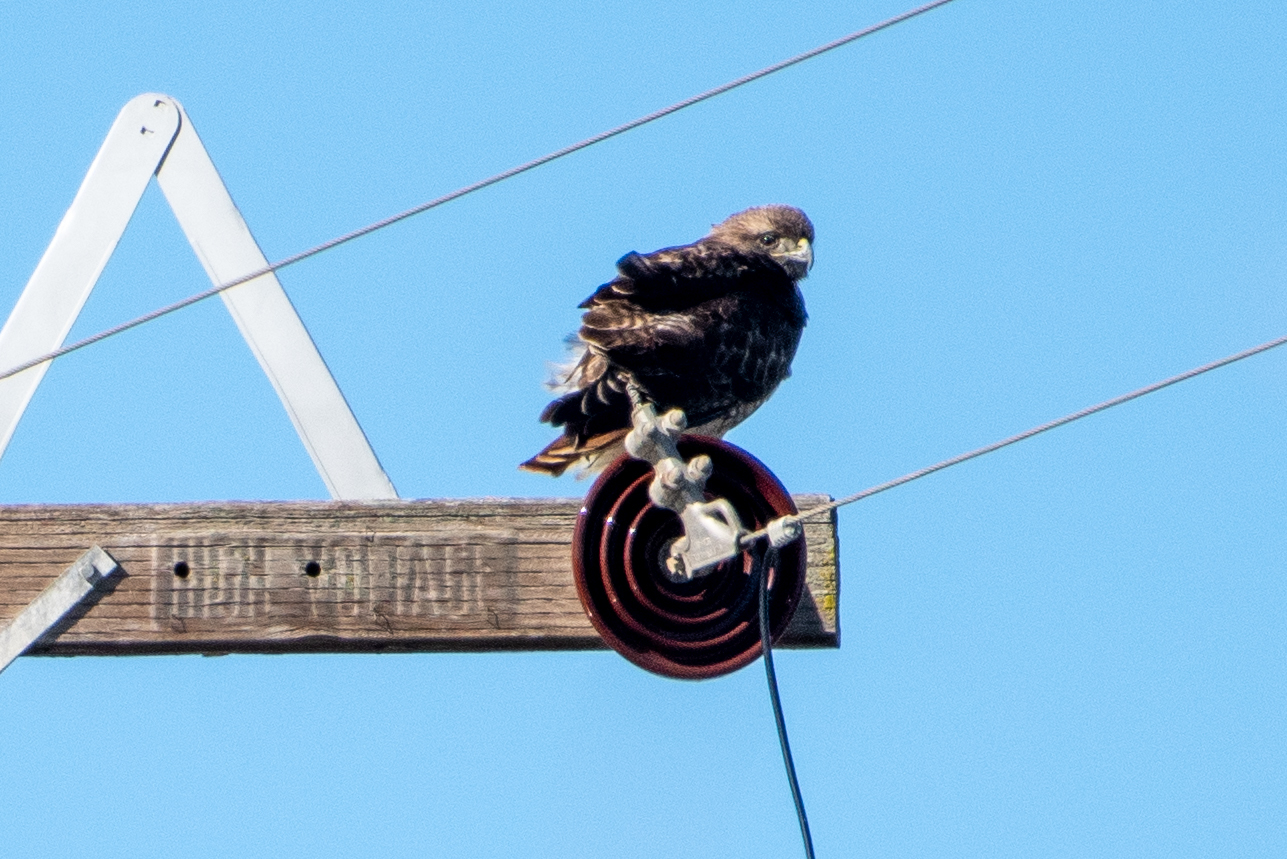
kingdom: Animalia
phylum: Chordata
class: Aves
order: Accipitriformes
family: Accipitridae
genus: Buteo
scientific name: Buteo jamaicensis
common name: Red-tailed hawk
